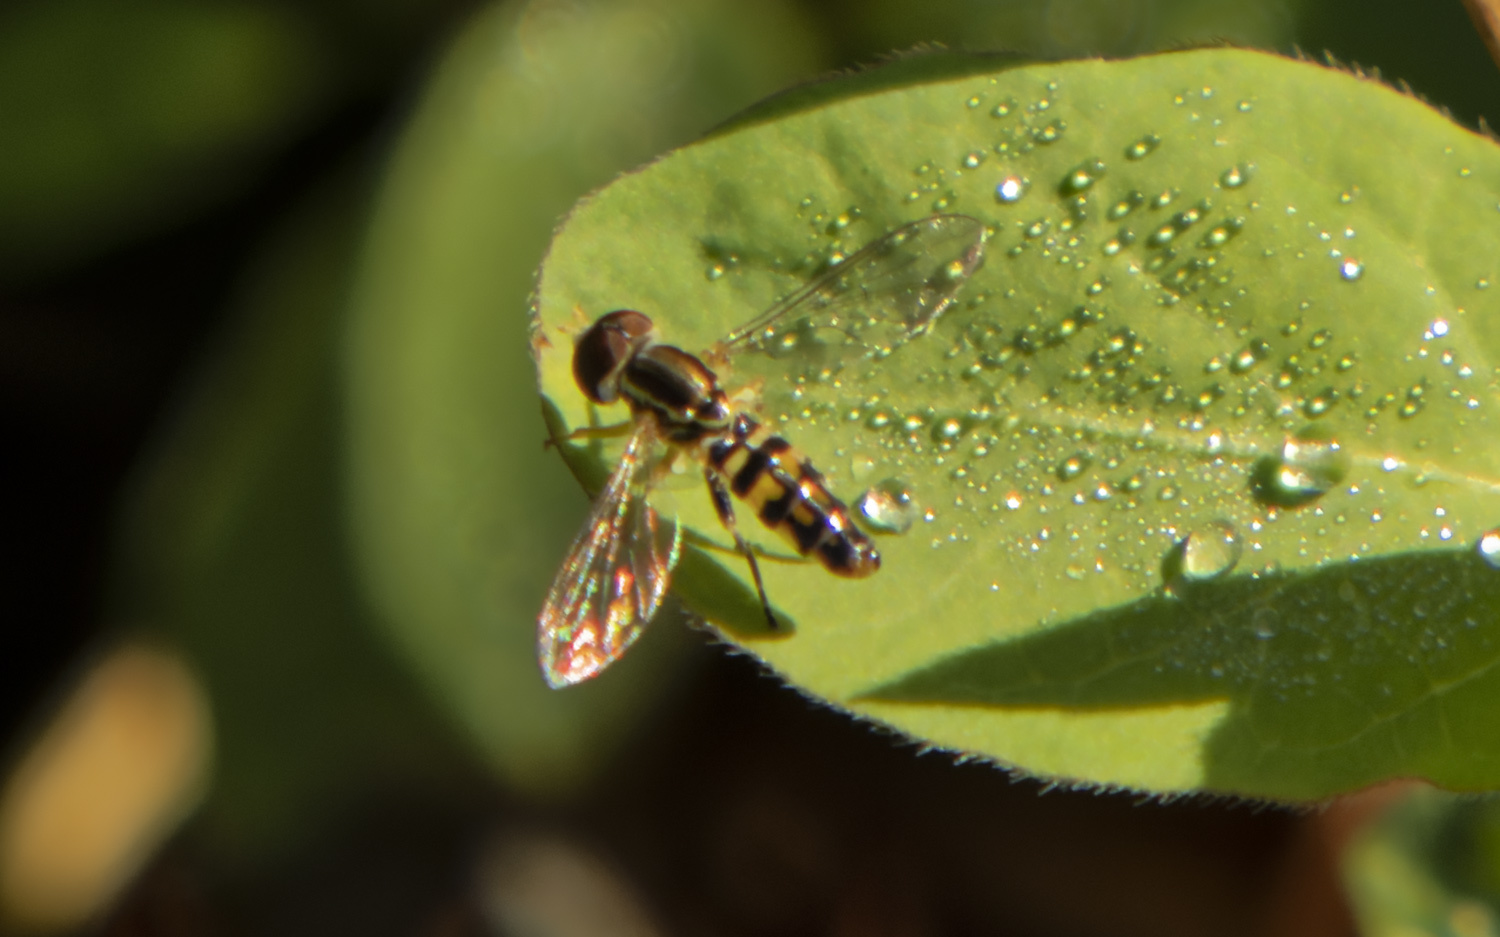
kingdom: Animalia
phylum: Arthropoda
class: Insecta
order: Diptera
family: Syrphidae
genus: Toxomerus
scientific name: Toxomerus geminatus
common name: Eastern calligrapher
